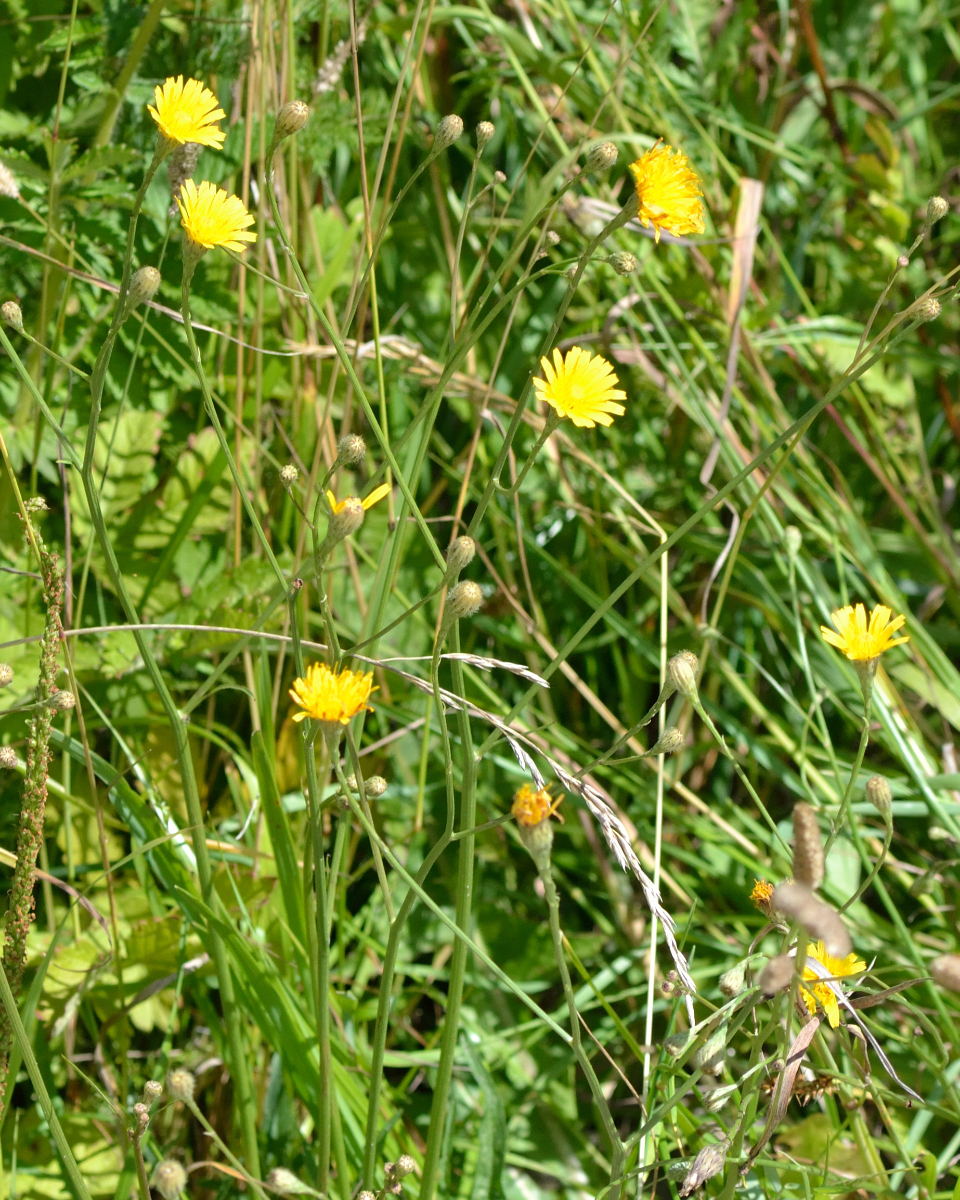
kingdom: Plantae
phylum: Tracheophyta
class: Magnoliopsida
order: Asterales
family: Asteraceae
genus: Scorzoneroides
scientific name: Scorzoneroides autumnalis
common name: Autumn hawkbit
